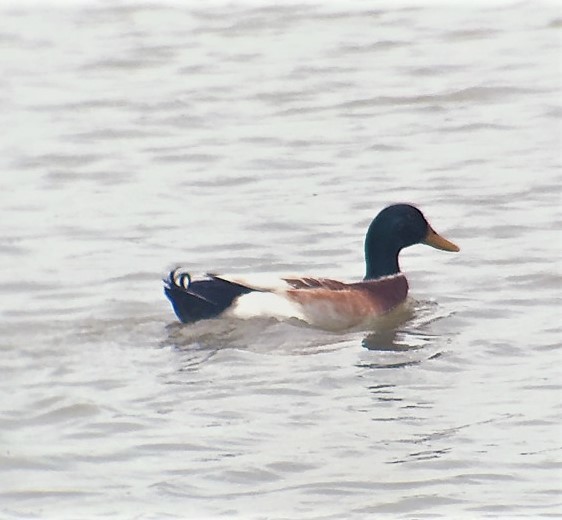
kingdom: Animalia
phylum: Chordata
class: Aves
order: Anseriformes
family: Anatidae
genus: Anas
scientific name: Anas platyrhynchos
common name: Mallard
